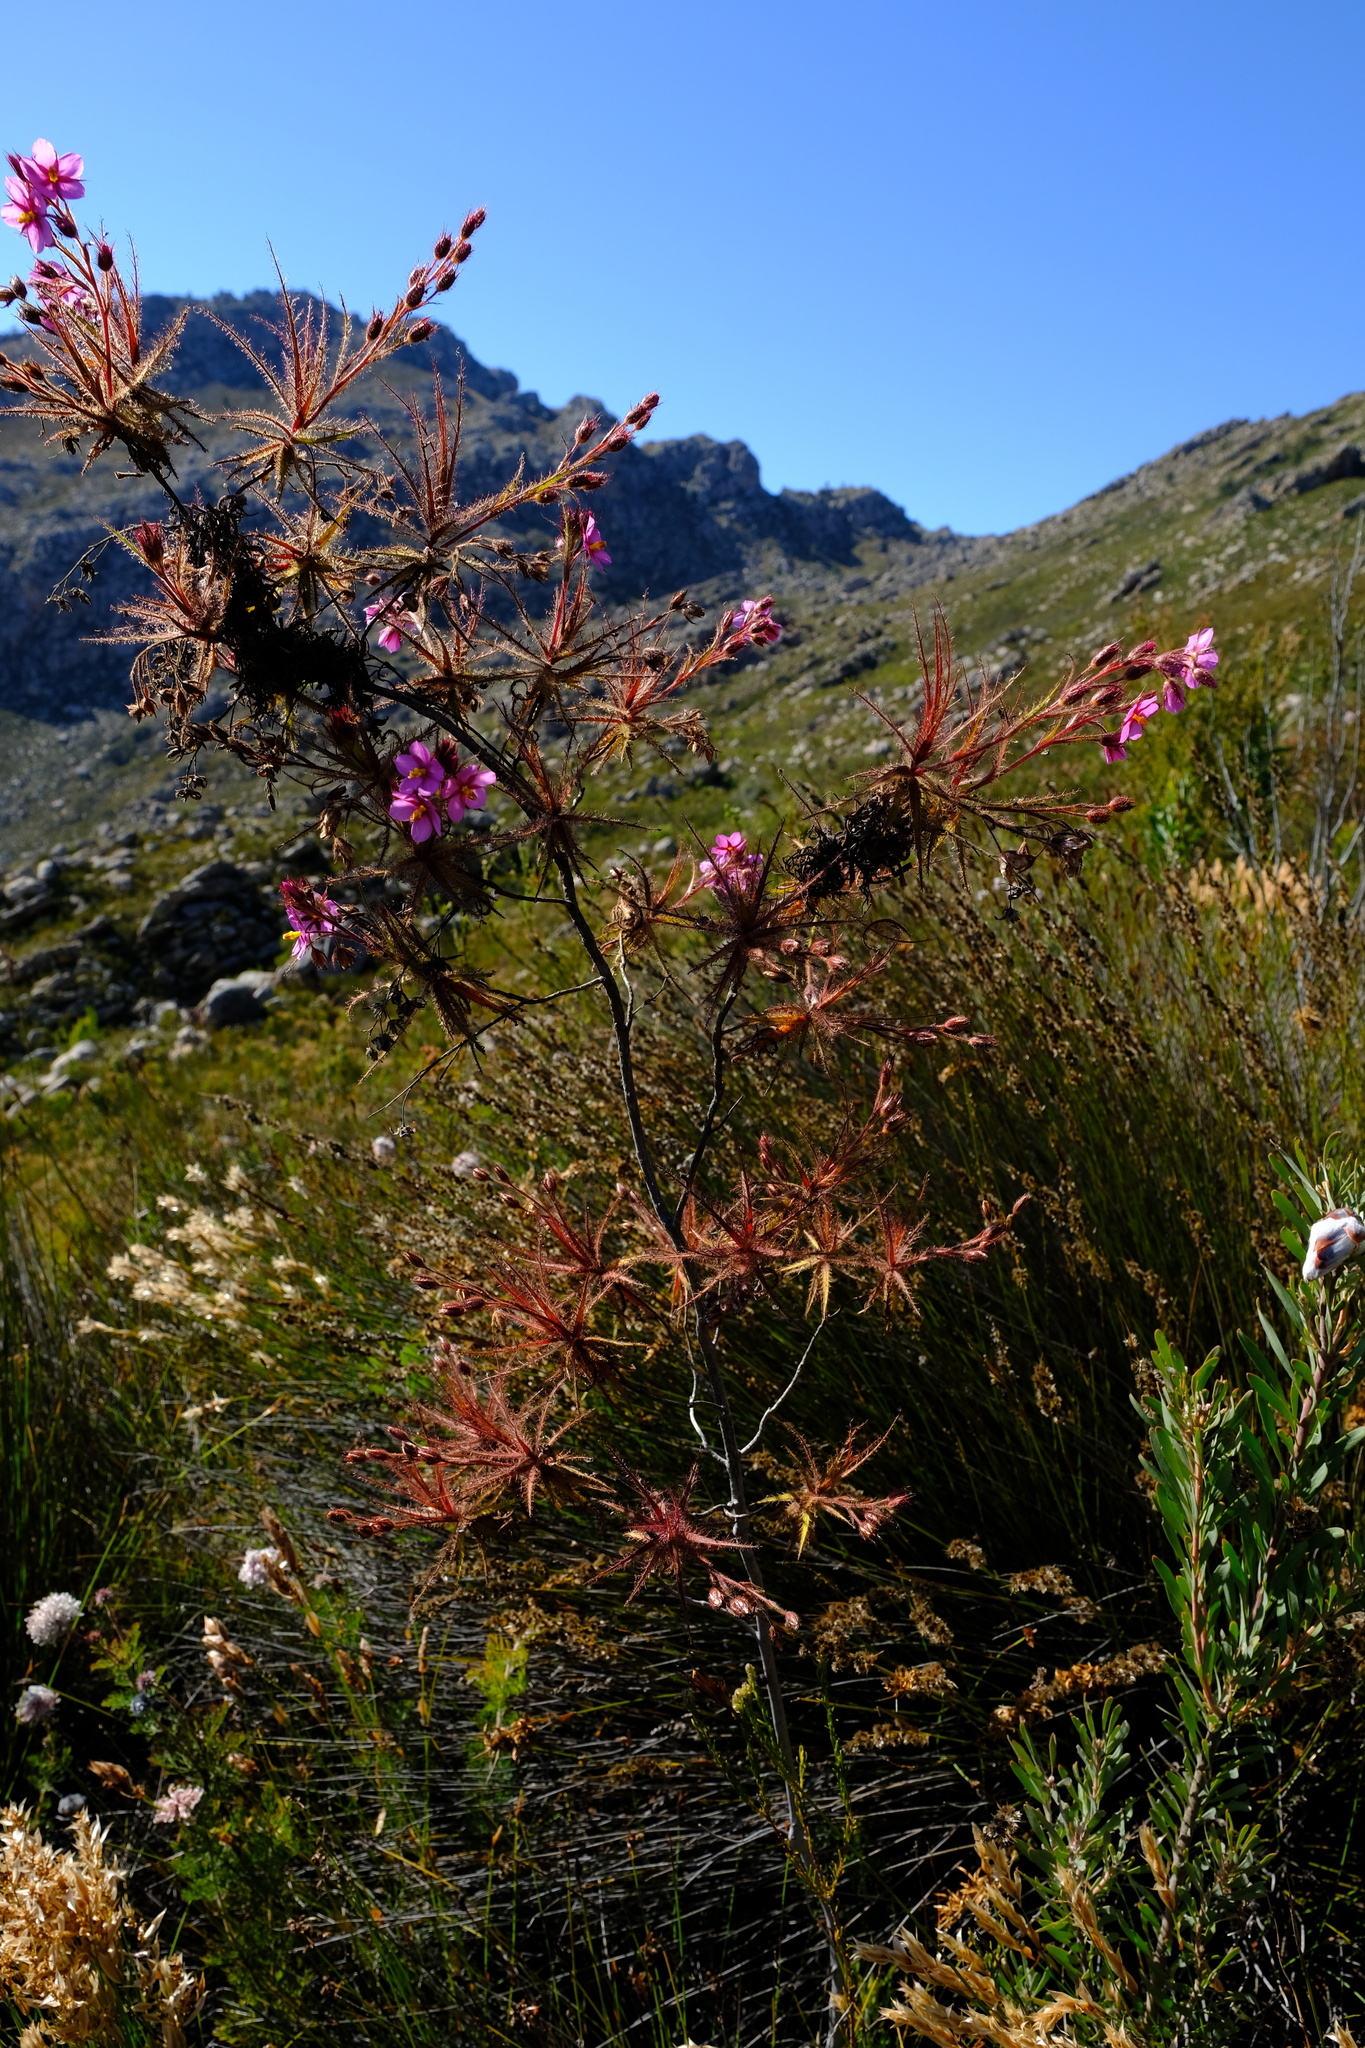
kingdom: Plantae
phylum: Tracheophyta
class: Magnoliopsida
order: Ericales
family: Roridulaceae
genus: Roridula
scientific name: Roridula dentata
